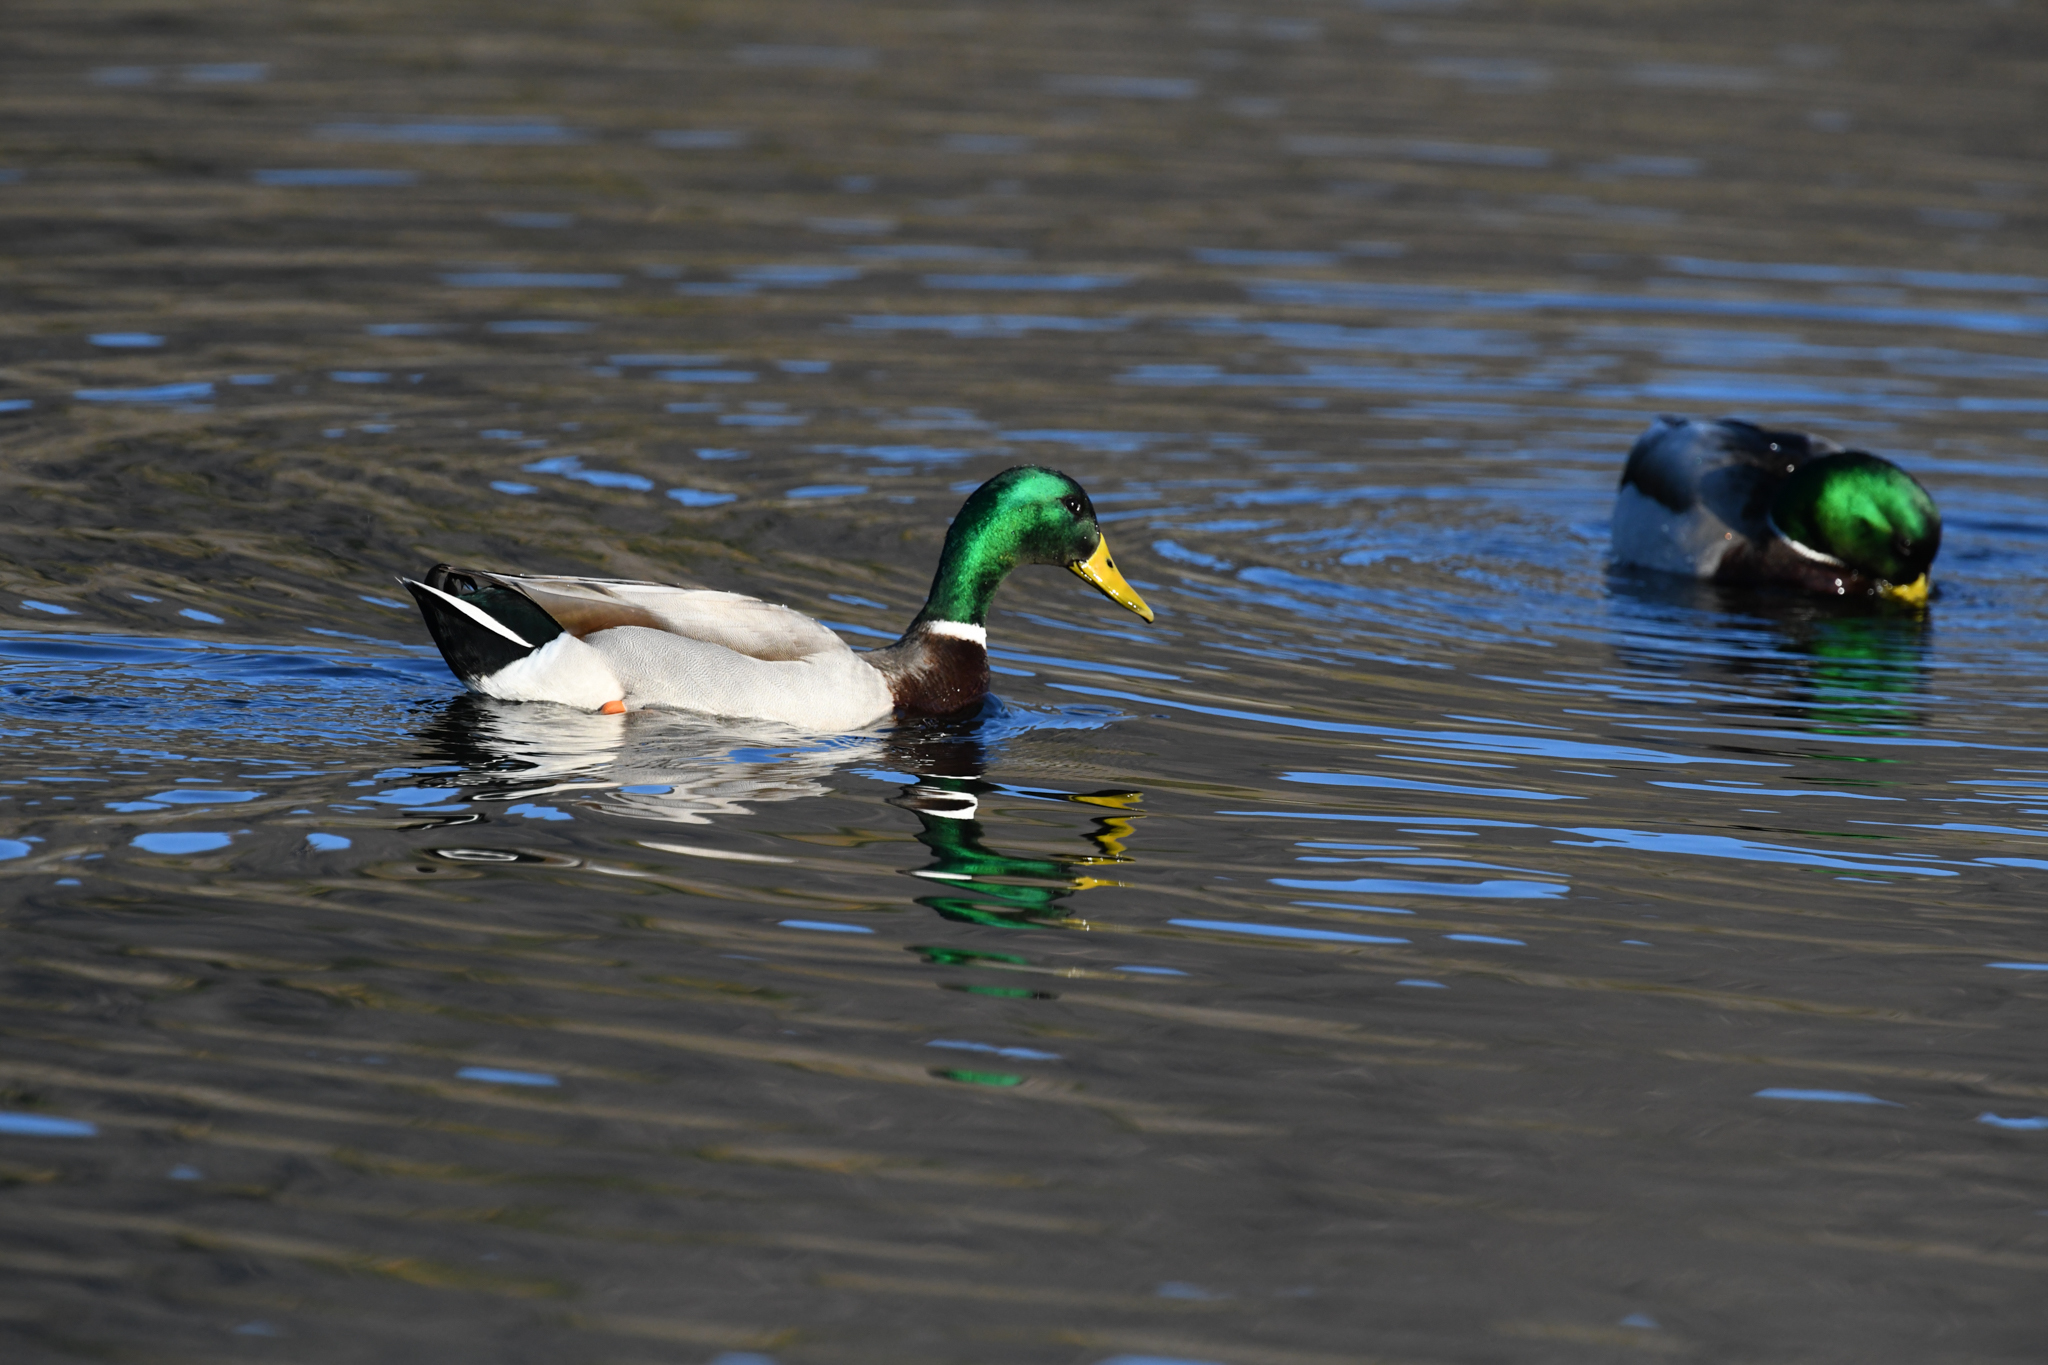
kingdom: Animalia
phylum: Chordata
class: Aves
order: Anseriformes
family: Anatidae
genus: Anas
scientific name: Anas platyrhynchos
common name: Mallard
